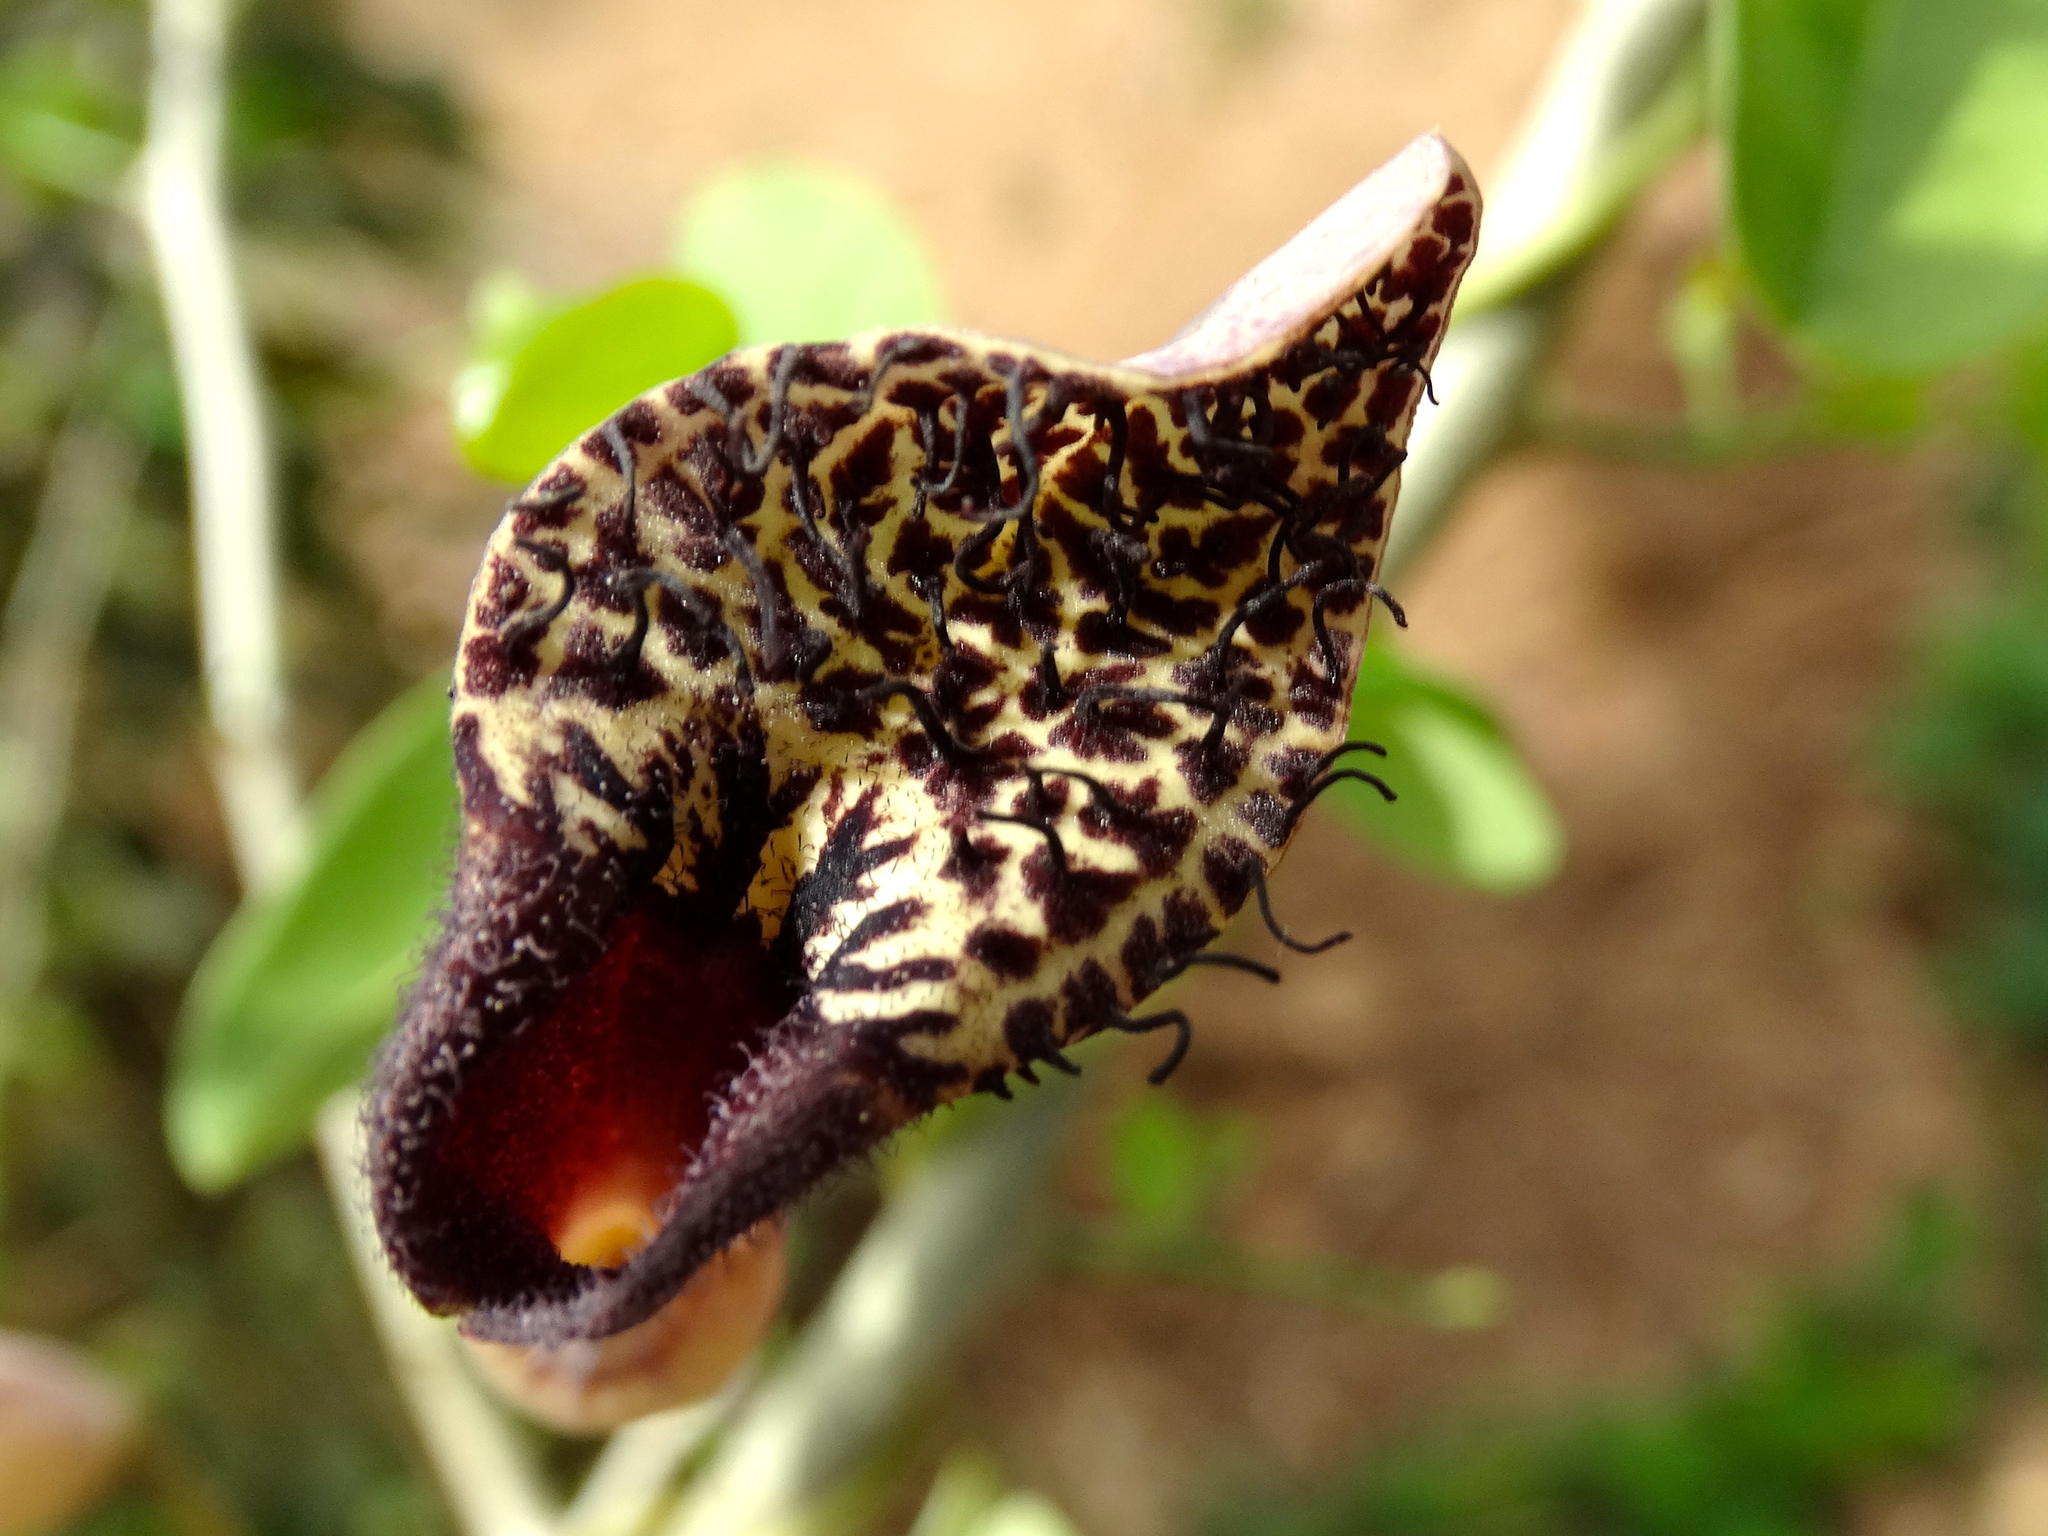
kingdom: Plantae
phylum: Tracheophyta
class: Magnoliopsida
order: Piperales
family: Aristolochiaceae
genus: Aristolochia
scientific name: Aristolochia taliscana
